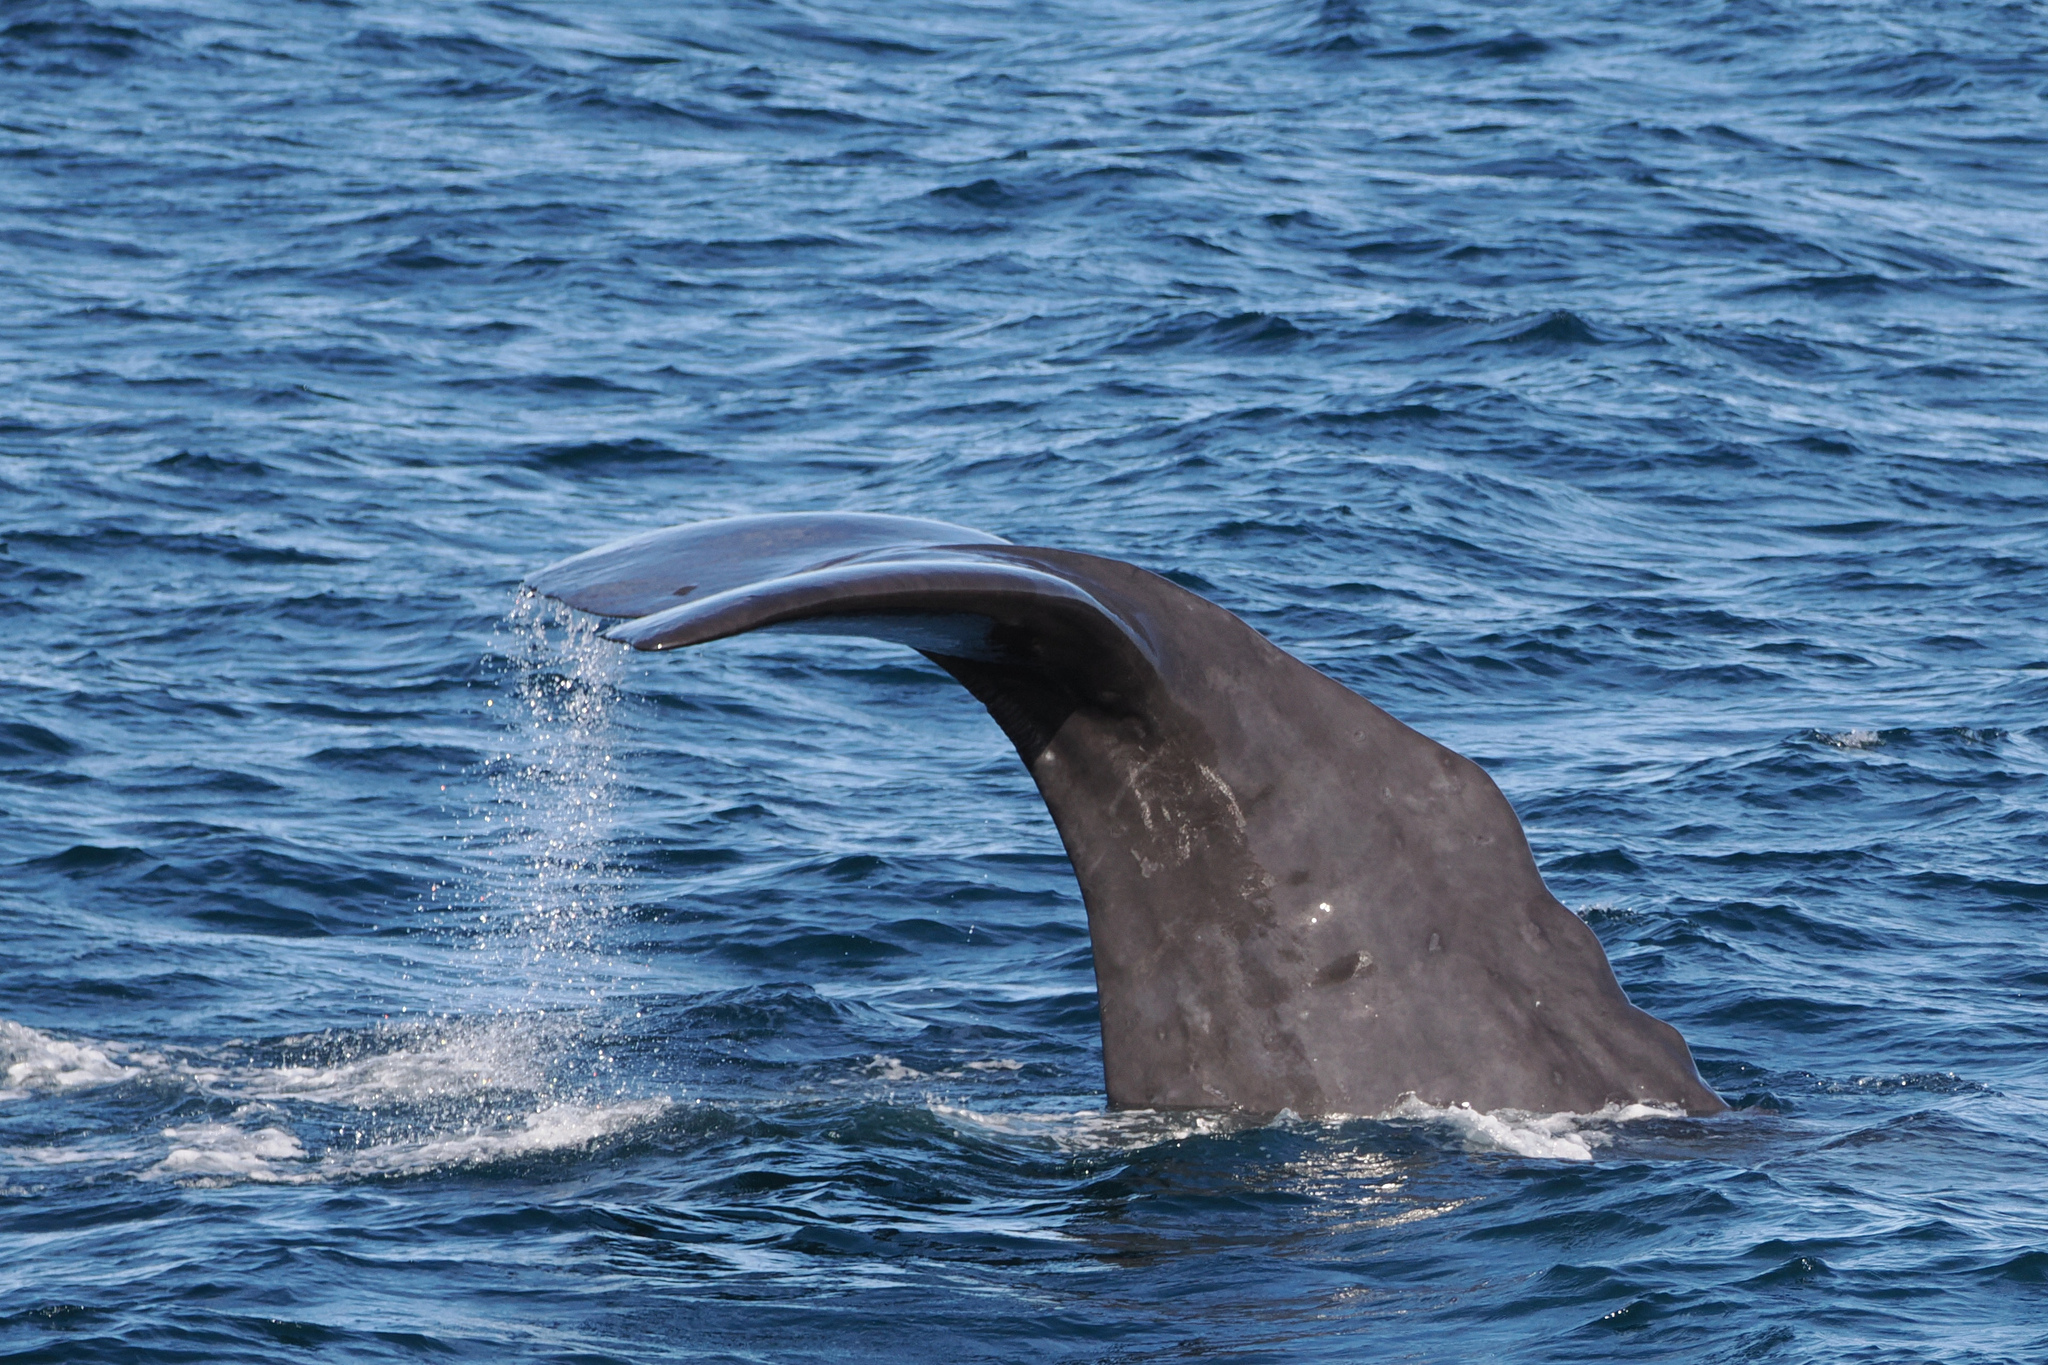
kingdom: Animalia
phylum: Chordata
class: Mammalia
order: Cetacea
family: Physeteridae
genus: Physeter
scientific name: Physeter macrocephalus
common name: Sperm whale
